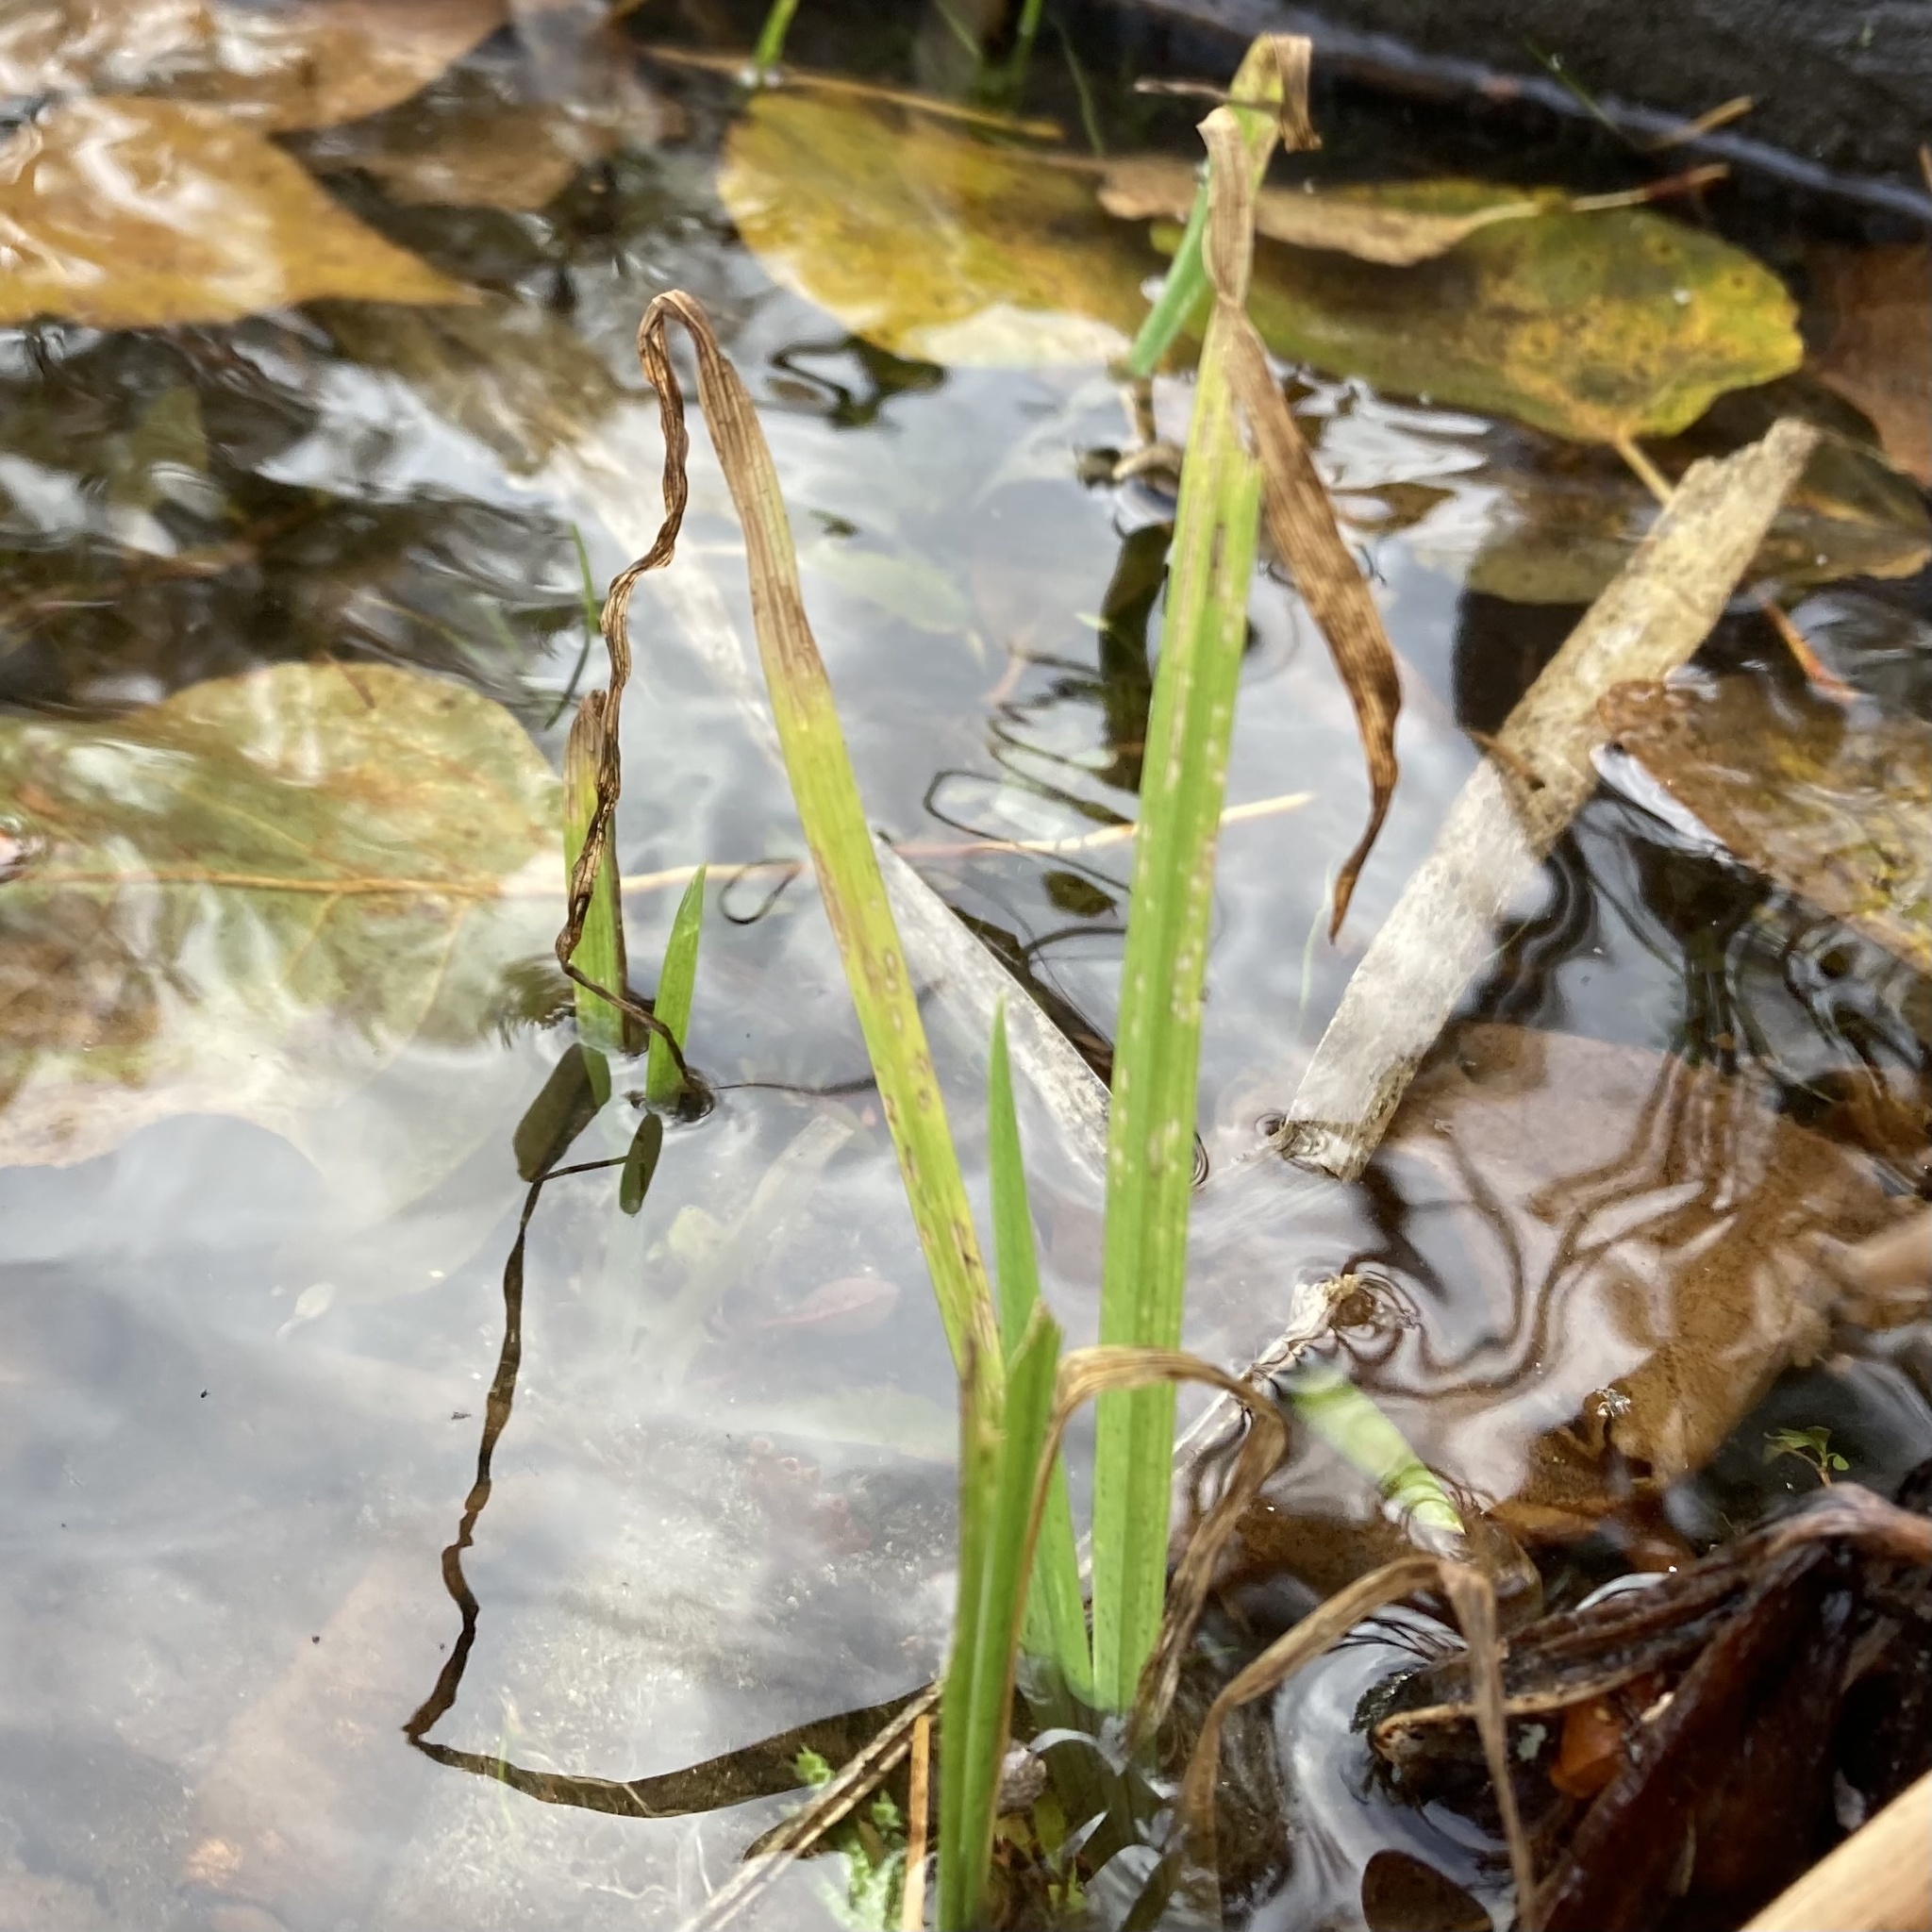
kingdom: Plantae
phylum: Tracheophyta
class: Liliopsida
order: Asparagales
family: Iridaceae
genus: Iris
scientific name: Iris pseudacorus
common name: Yellow flag
